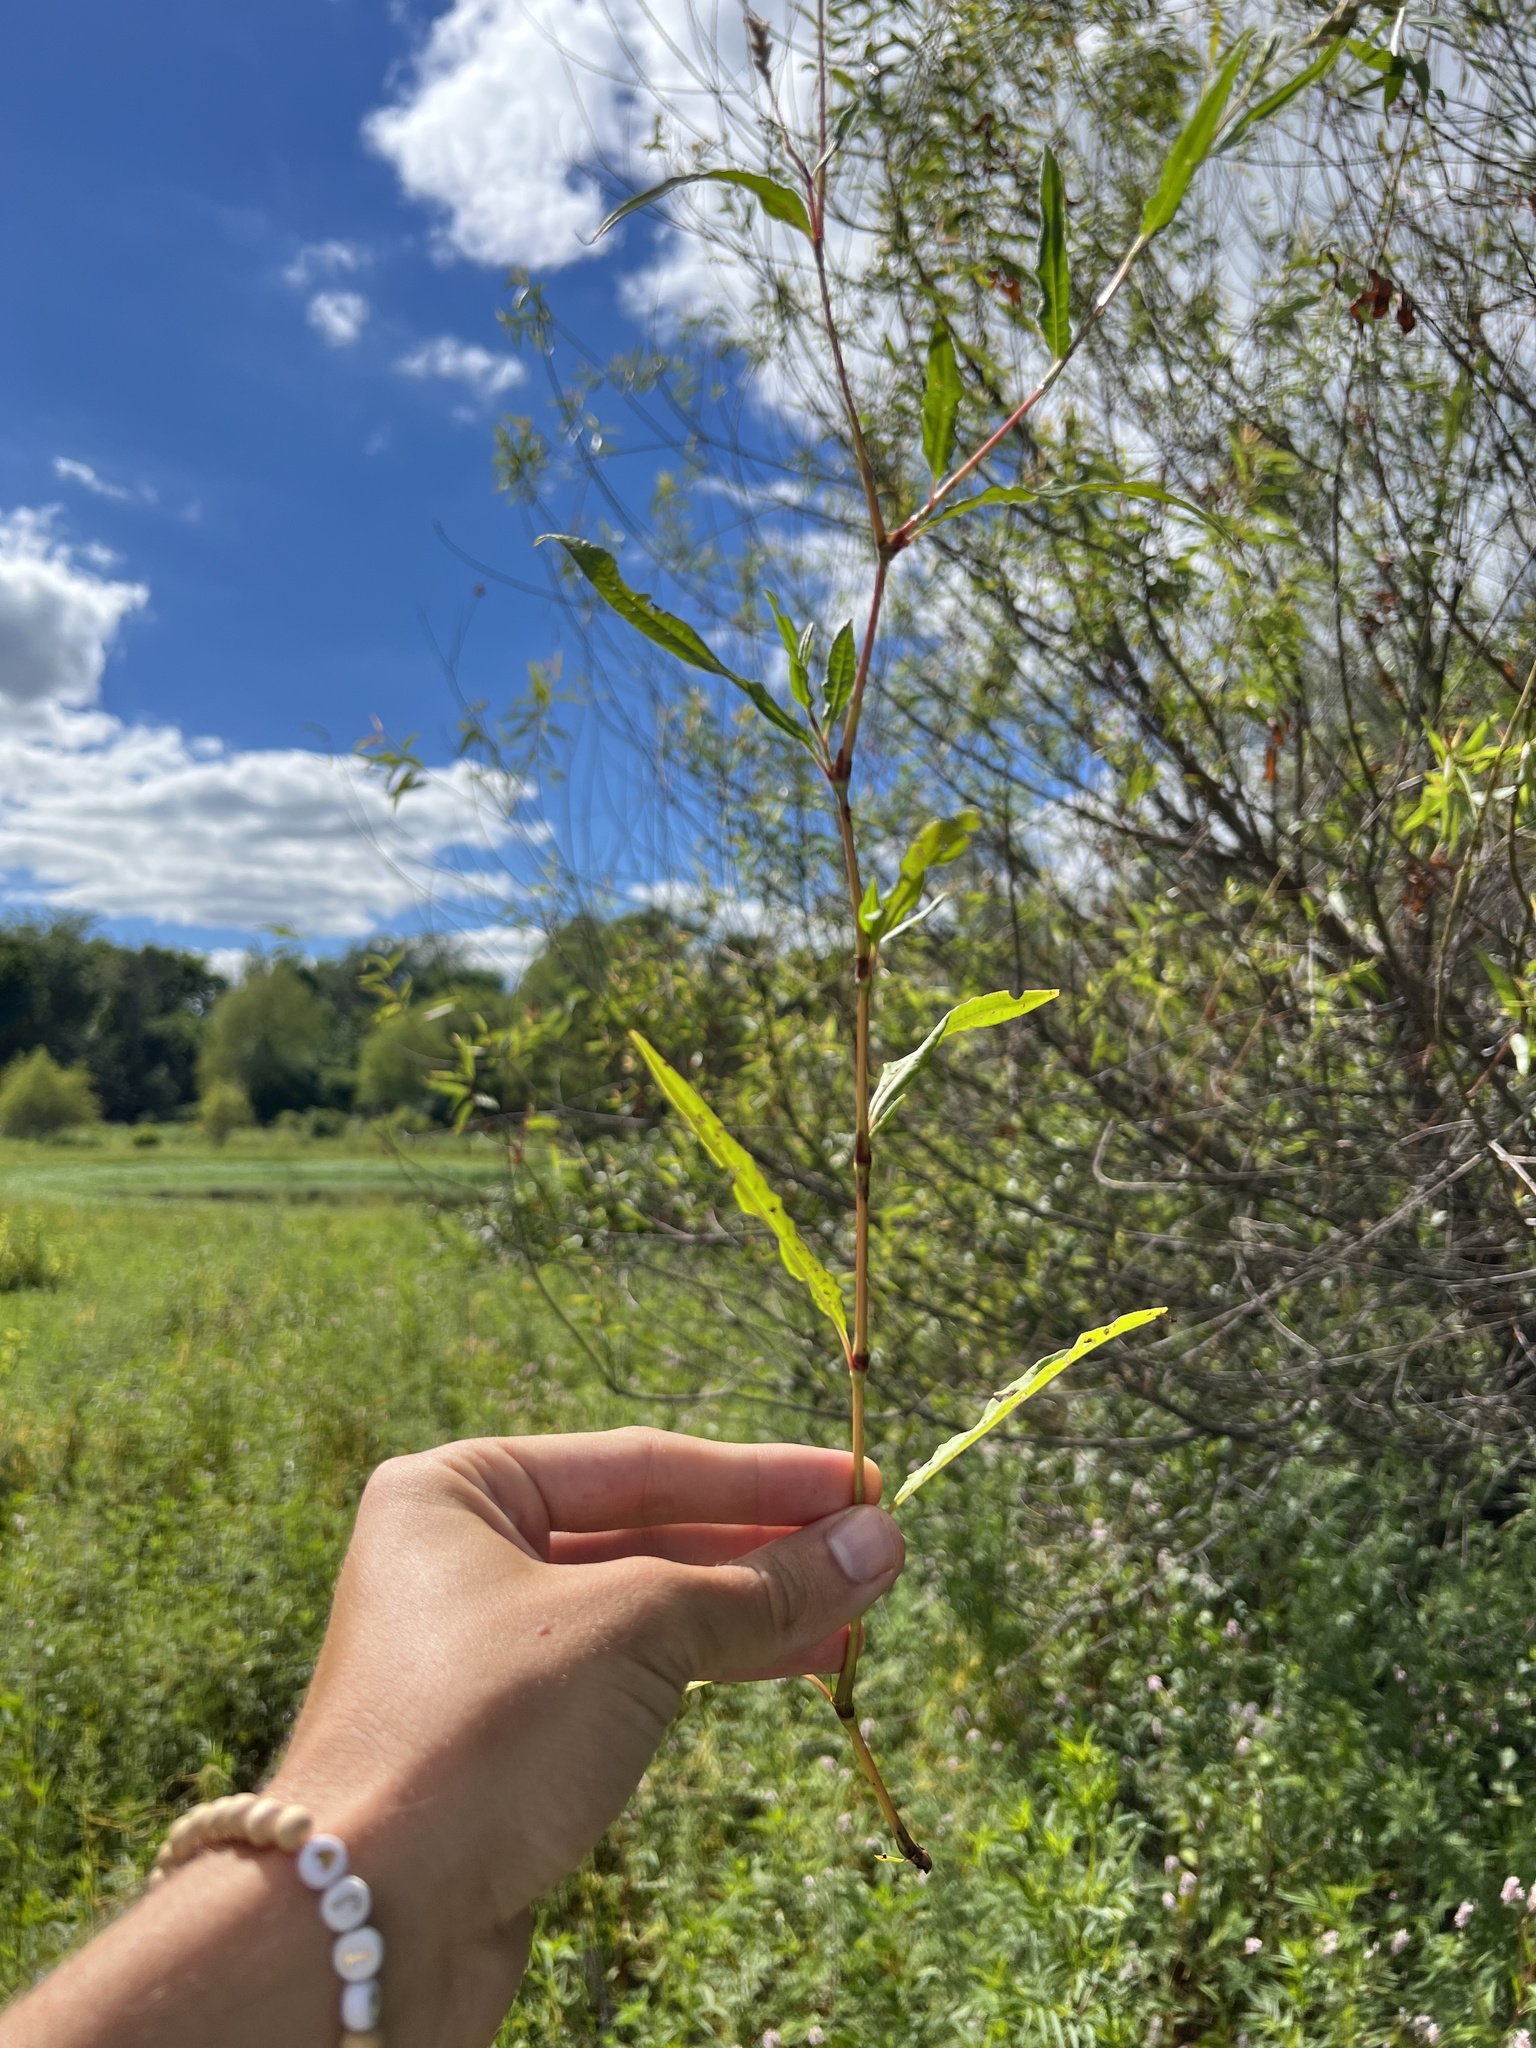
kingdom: Plantae
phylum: Tracheophyta
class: Magnoliopsida
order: Caryophyllales
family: Polygonaceae
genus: Persicaria
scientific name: Persicaria pensylvanica
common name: Pinkweed
